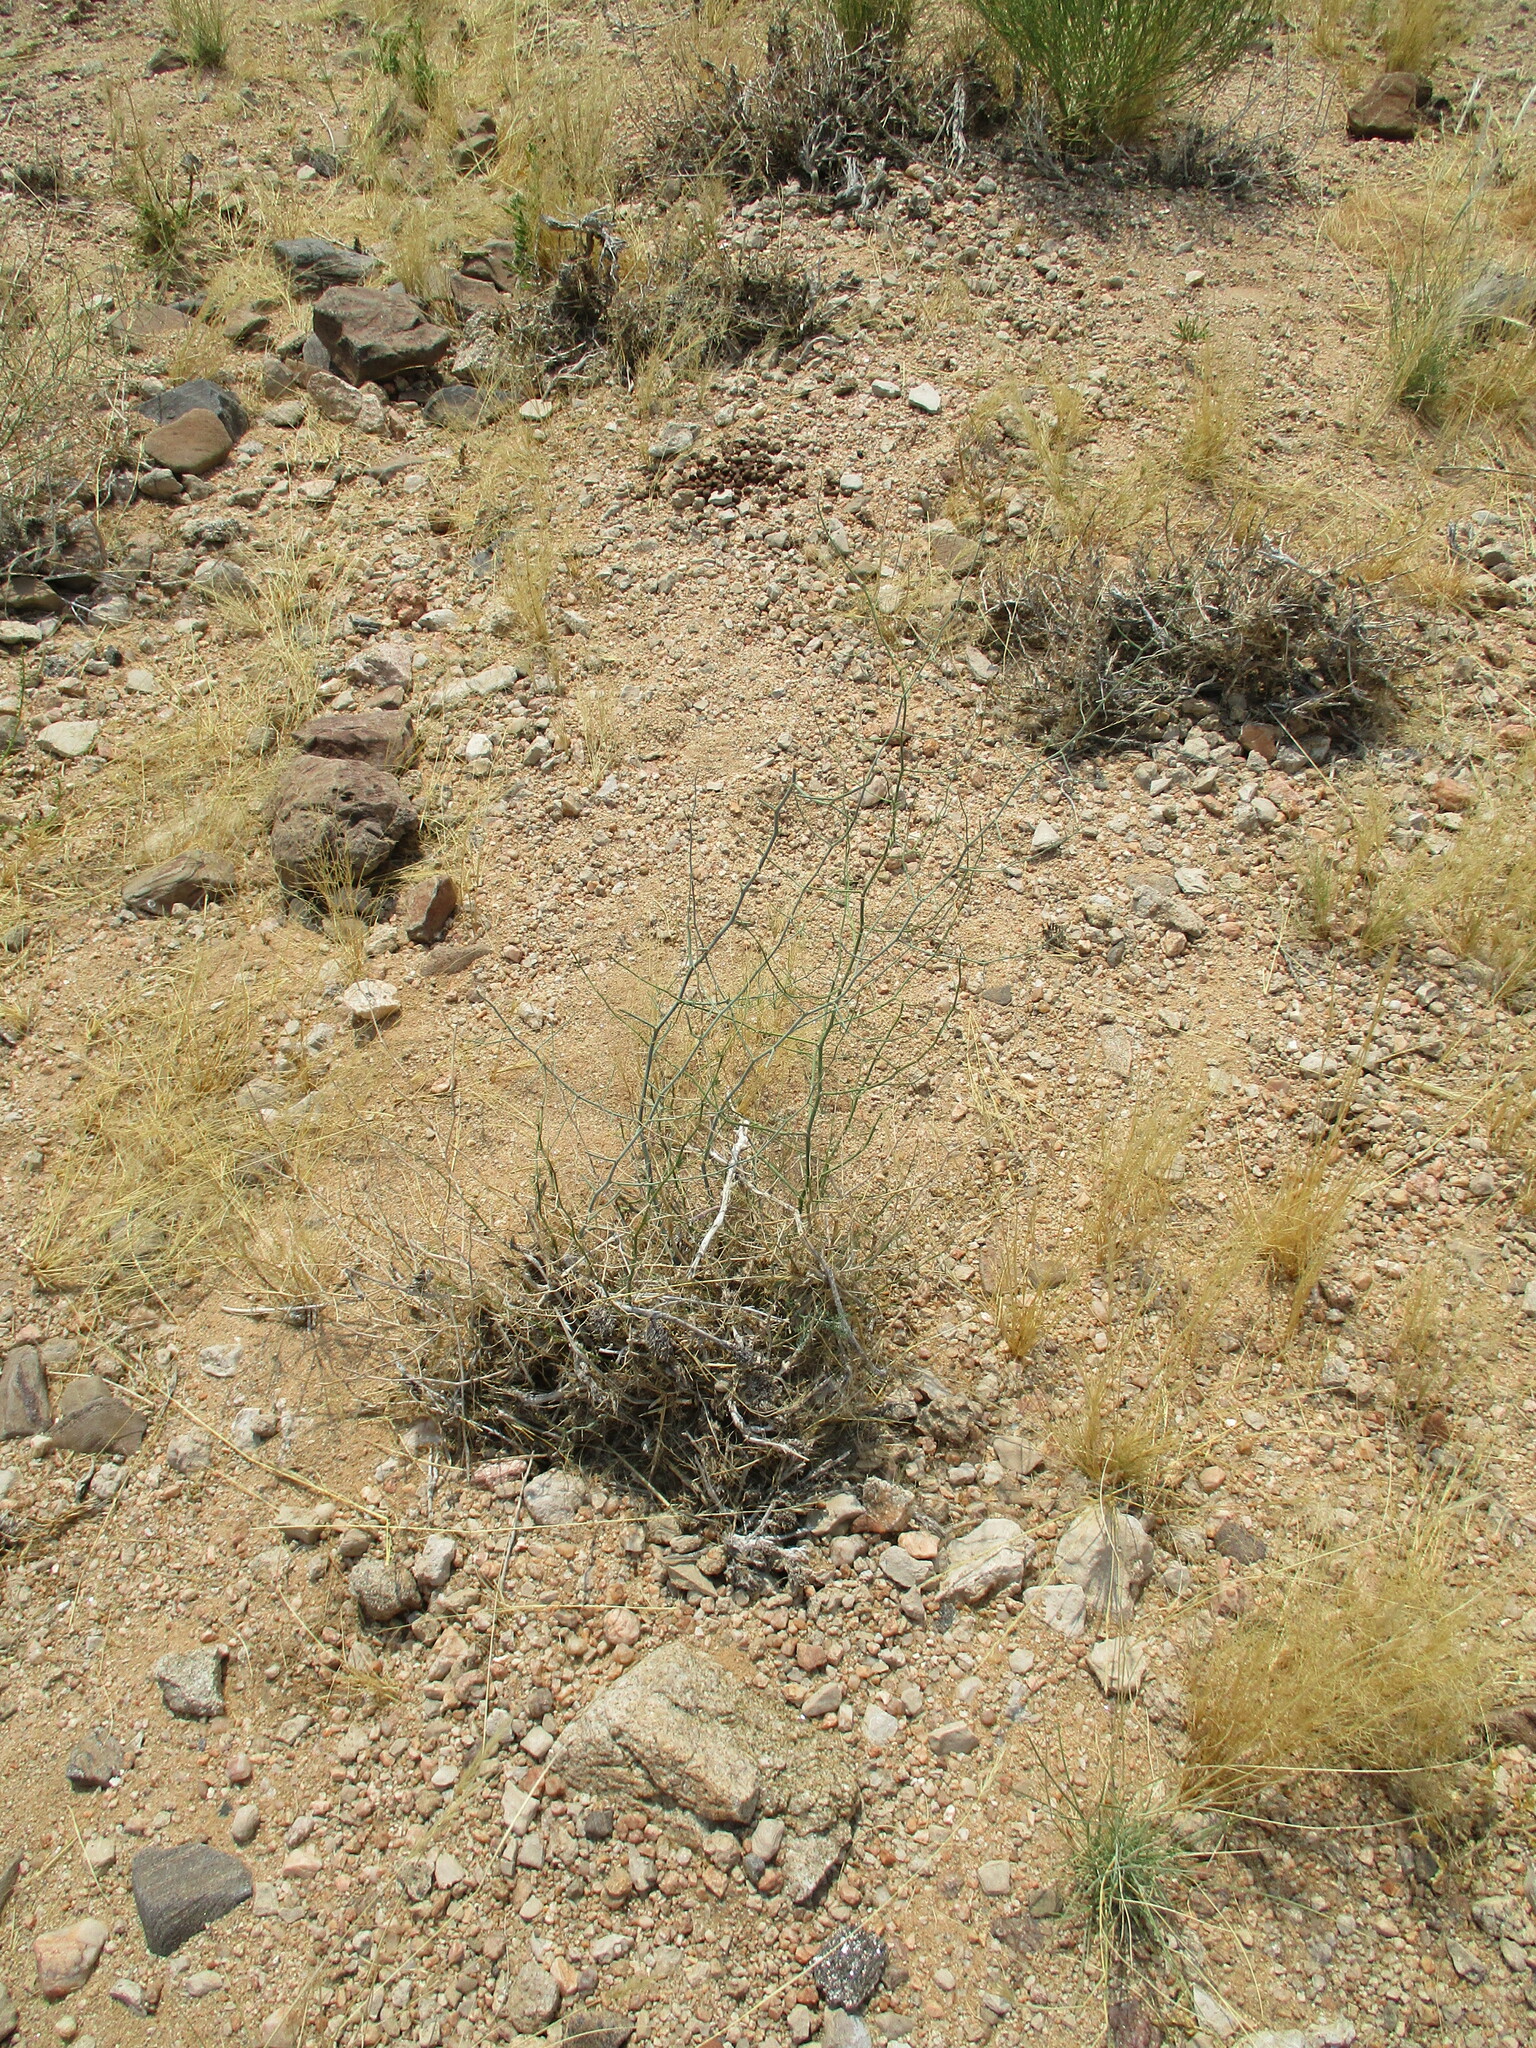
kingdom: Plantae
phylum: Tracheophyta
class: Liliopsida
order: Asparagales
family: Asparagaceae
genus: Asparagus
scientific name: Asparagus pearsonii
